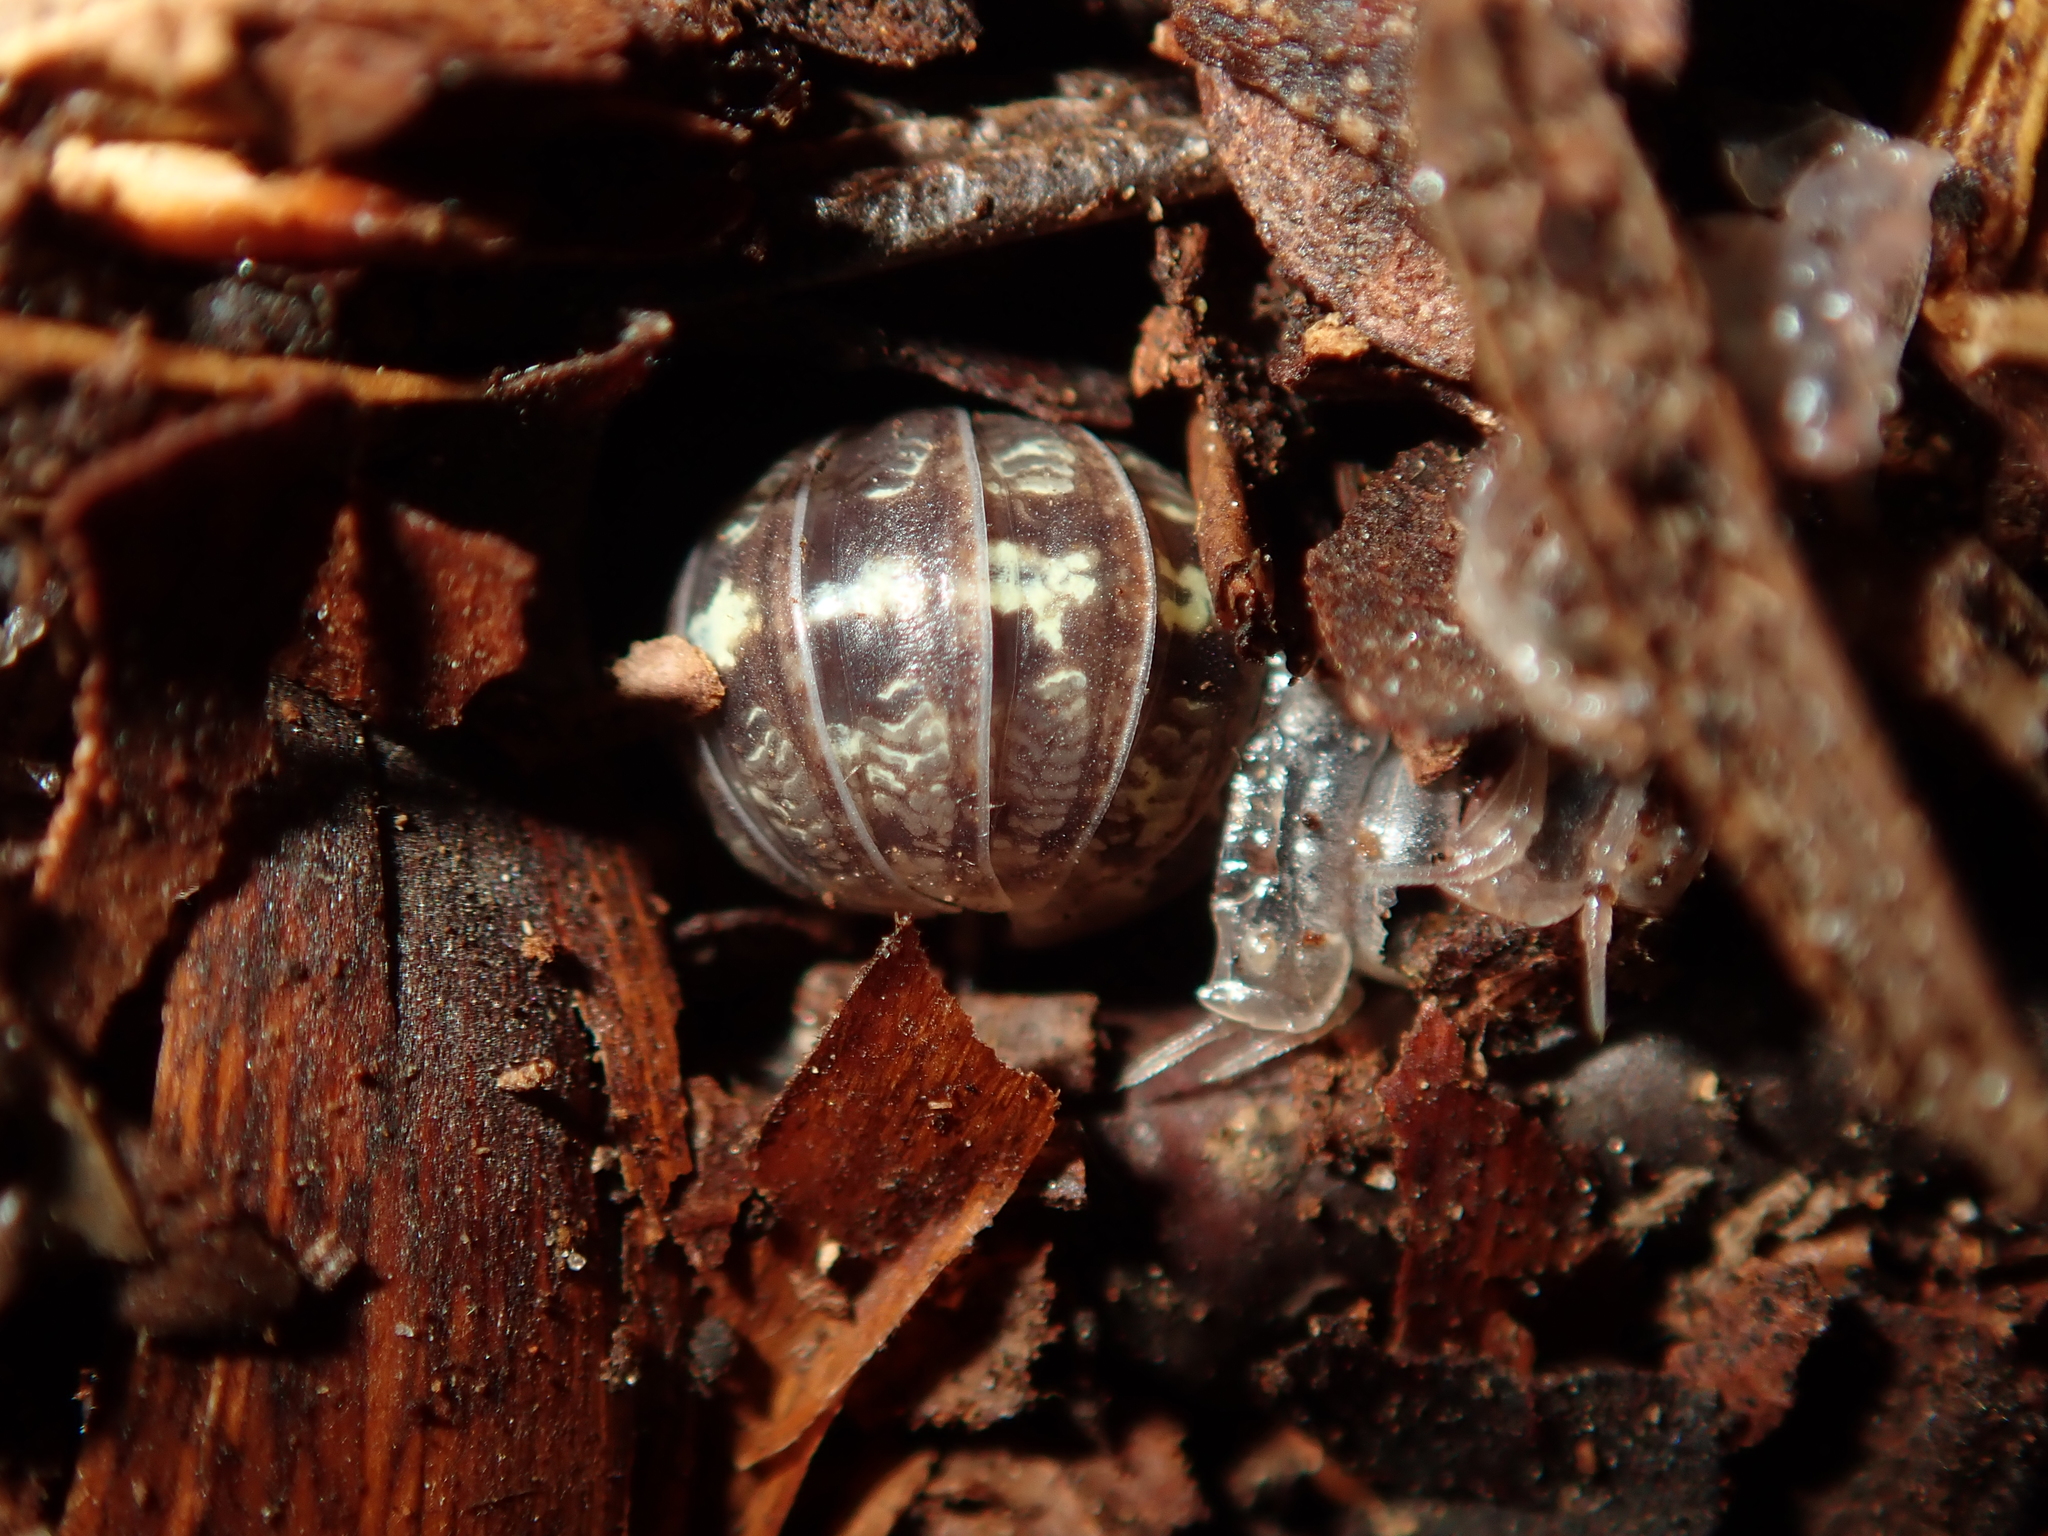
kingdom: Animalia
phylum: Arthropoda
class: Malacostraca
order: Isopoda
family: Armadillidiidae
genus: Armadillidium
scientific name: Armadillidium vulgare
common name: Common pill woodlouse
